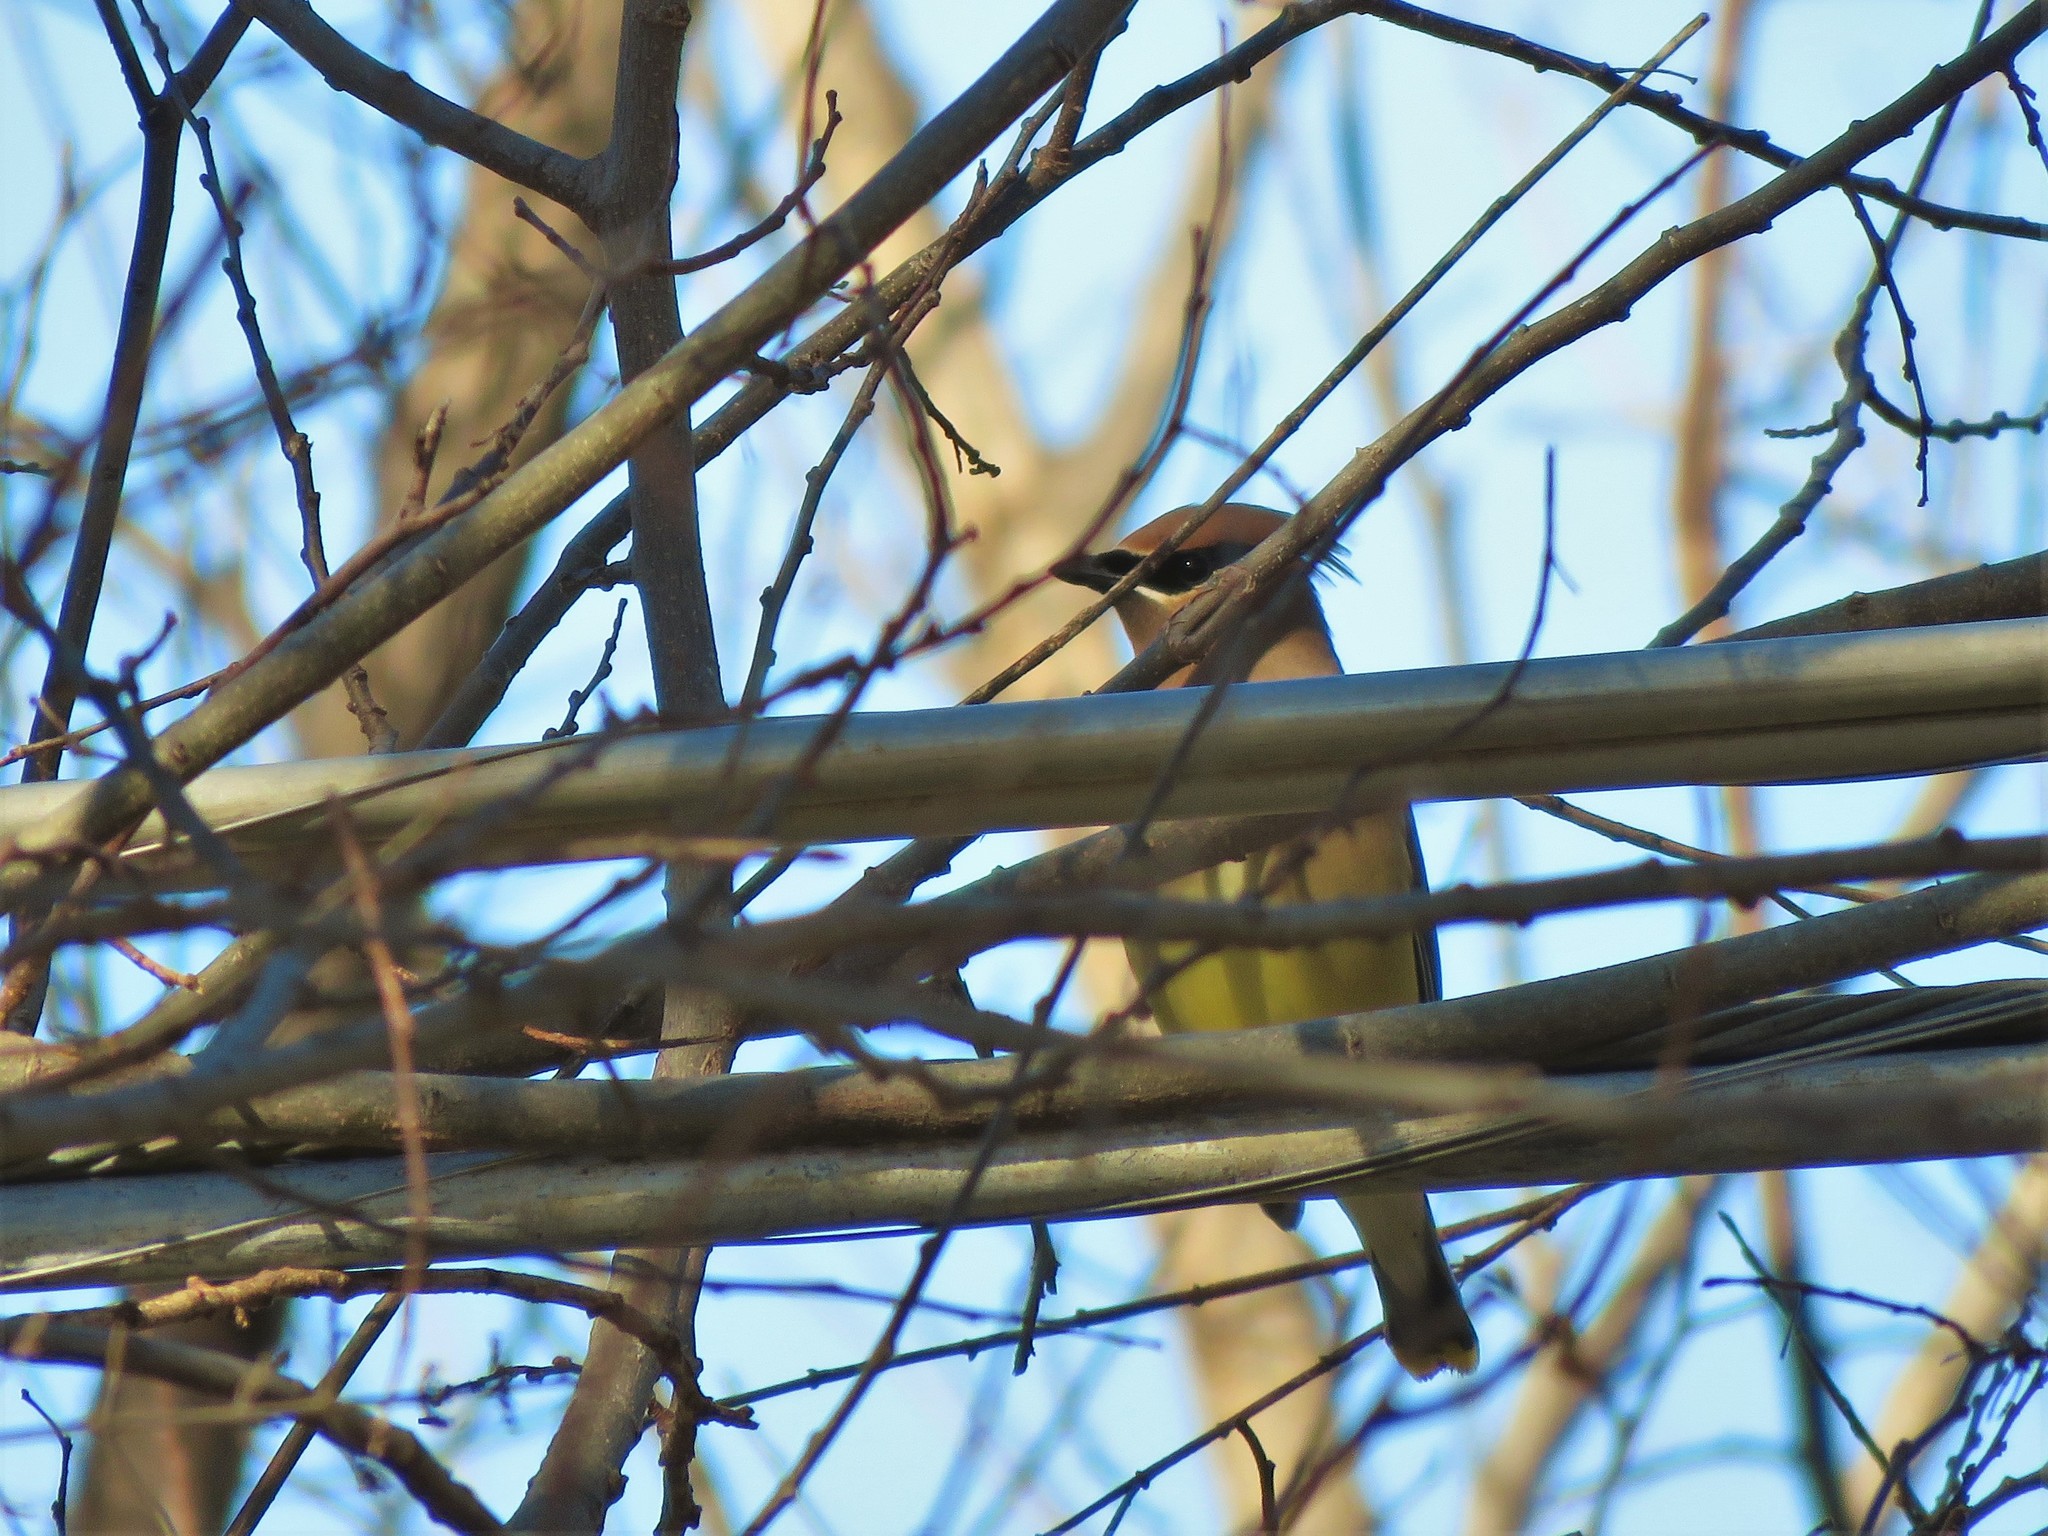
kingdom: Animalia
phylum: Chordata
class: Aves
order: Passeriformes
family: Bombycillidae
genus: Bombycilla
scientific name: Bombycilla cedrorum
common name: Cedar waxwing
